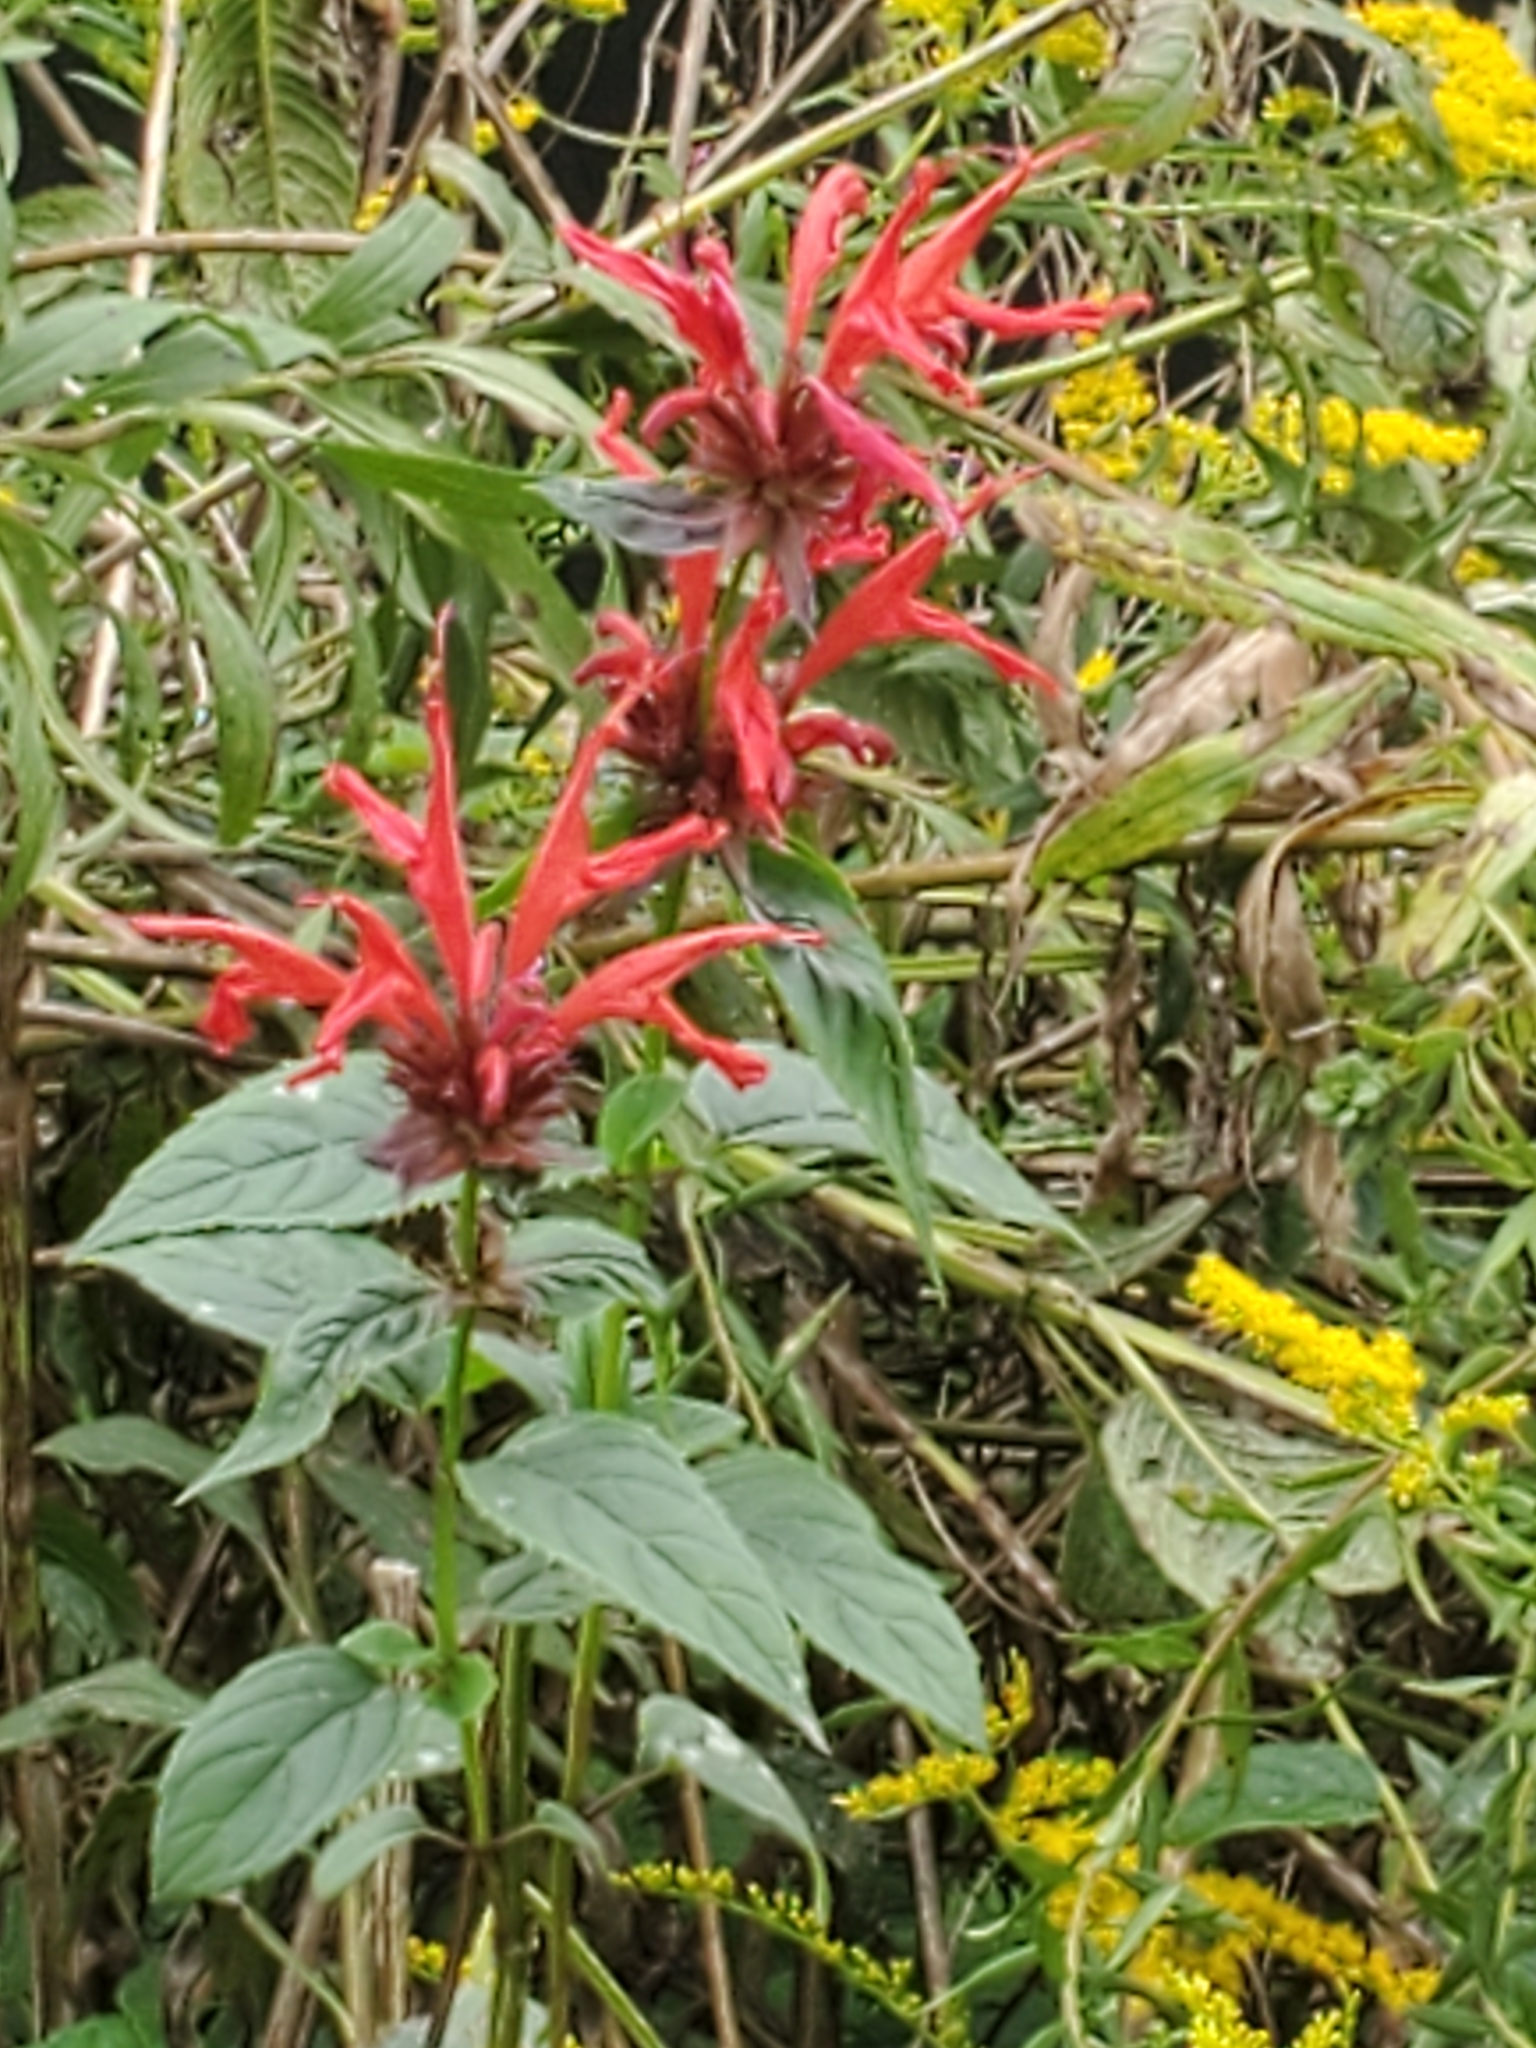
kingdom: Plantae
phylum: Tracheophyta
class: Magnoliopsida
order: Lamiales
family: Lamiaceae
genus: Monarda
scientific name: Monarda didyma
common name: Beebalm
